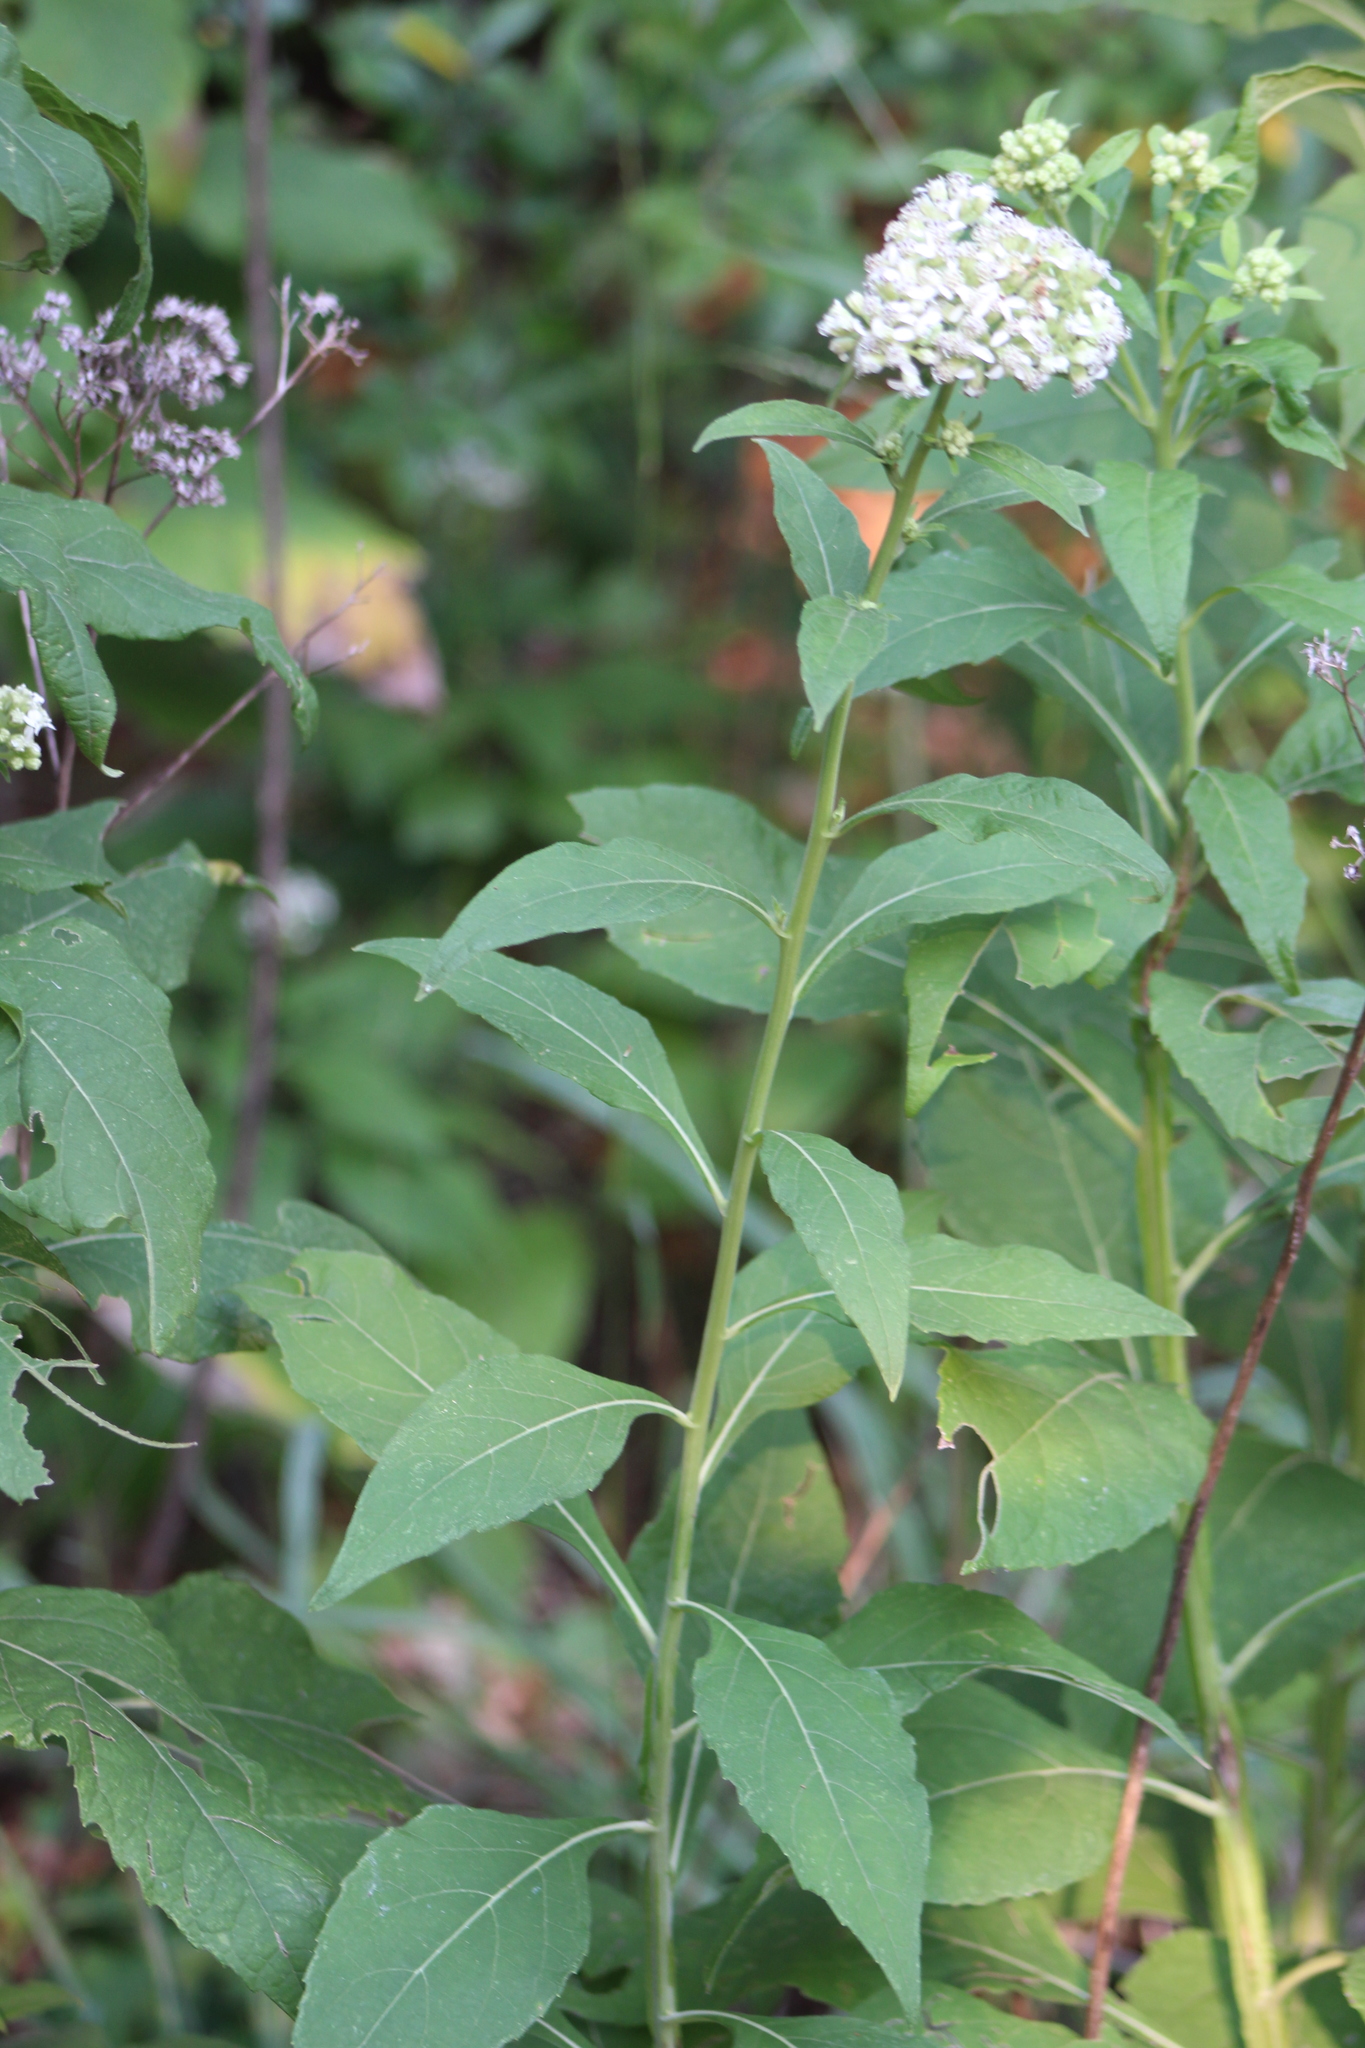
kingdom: Plantae
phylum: Tracheophyta
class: Magnoliopsida
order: Asterales
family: Asteraceae
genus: Verbesina
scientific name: Verbesina virginica
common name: Frostweed
